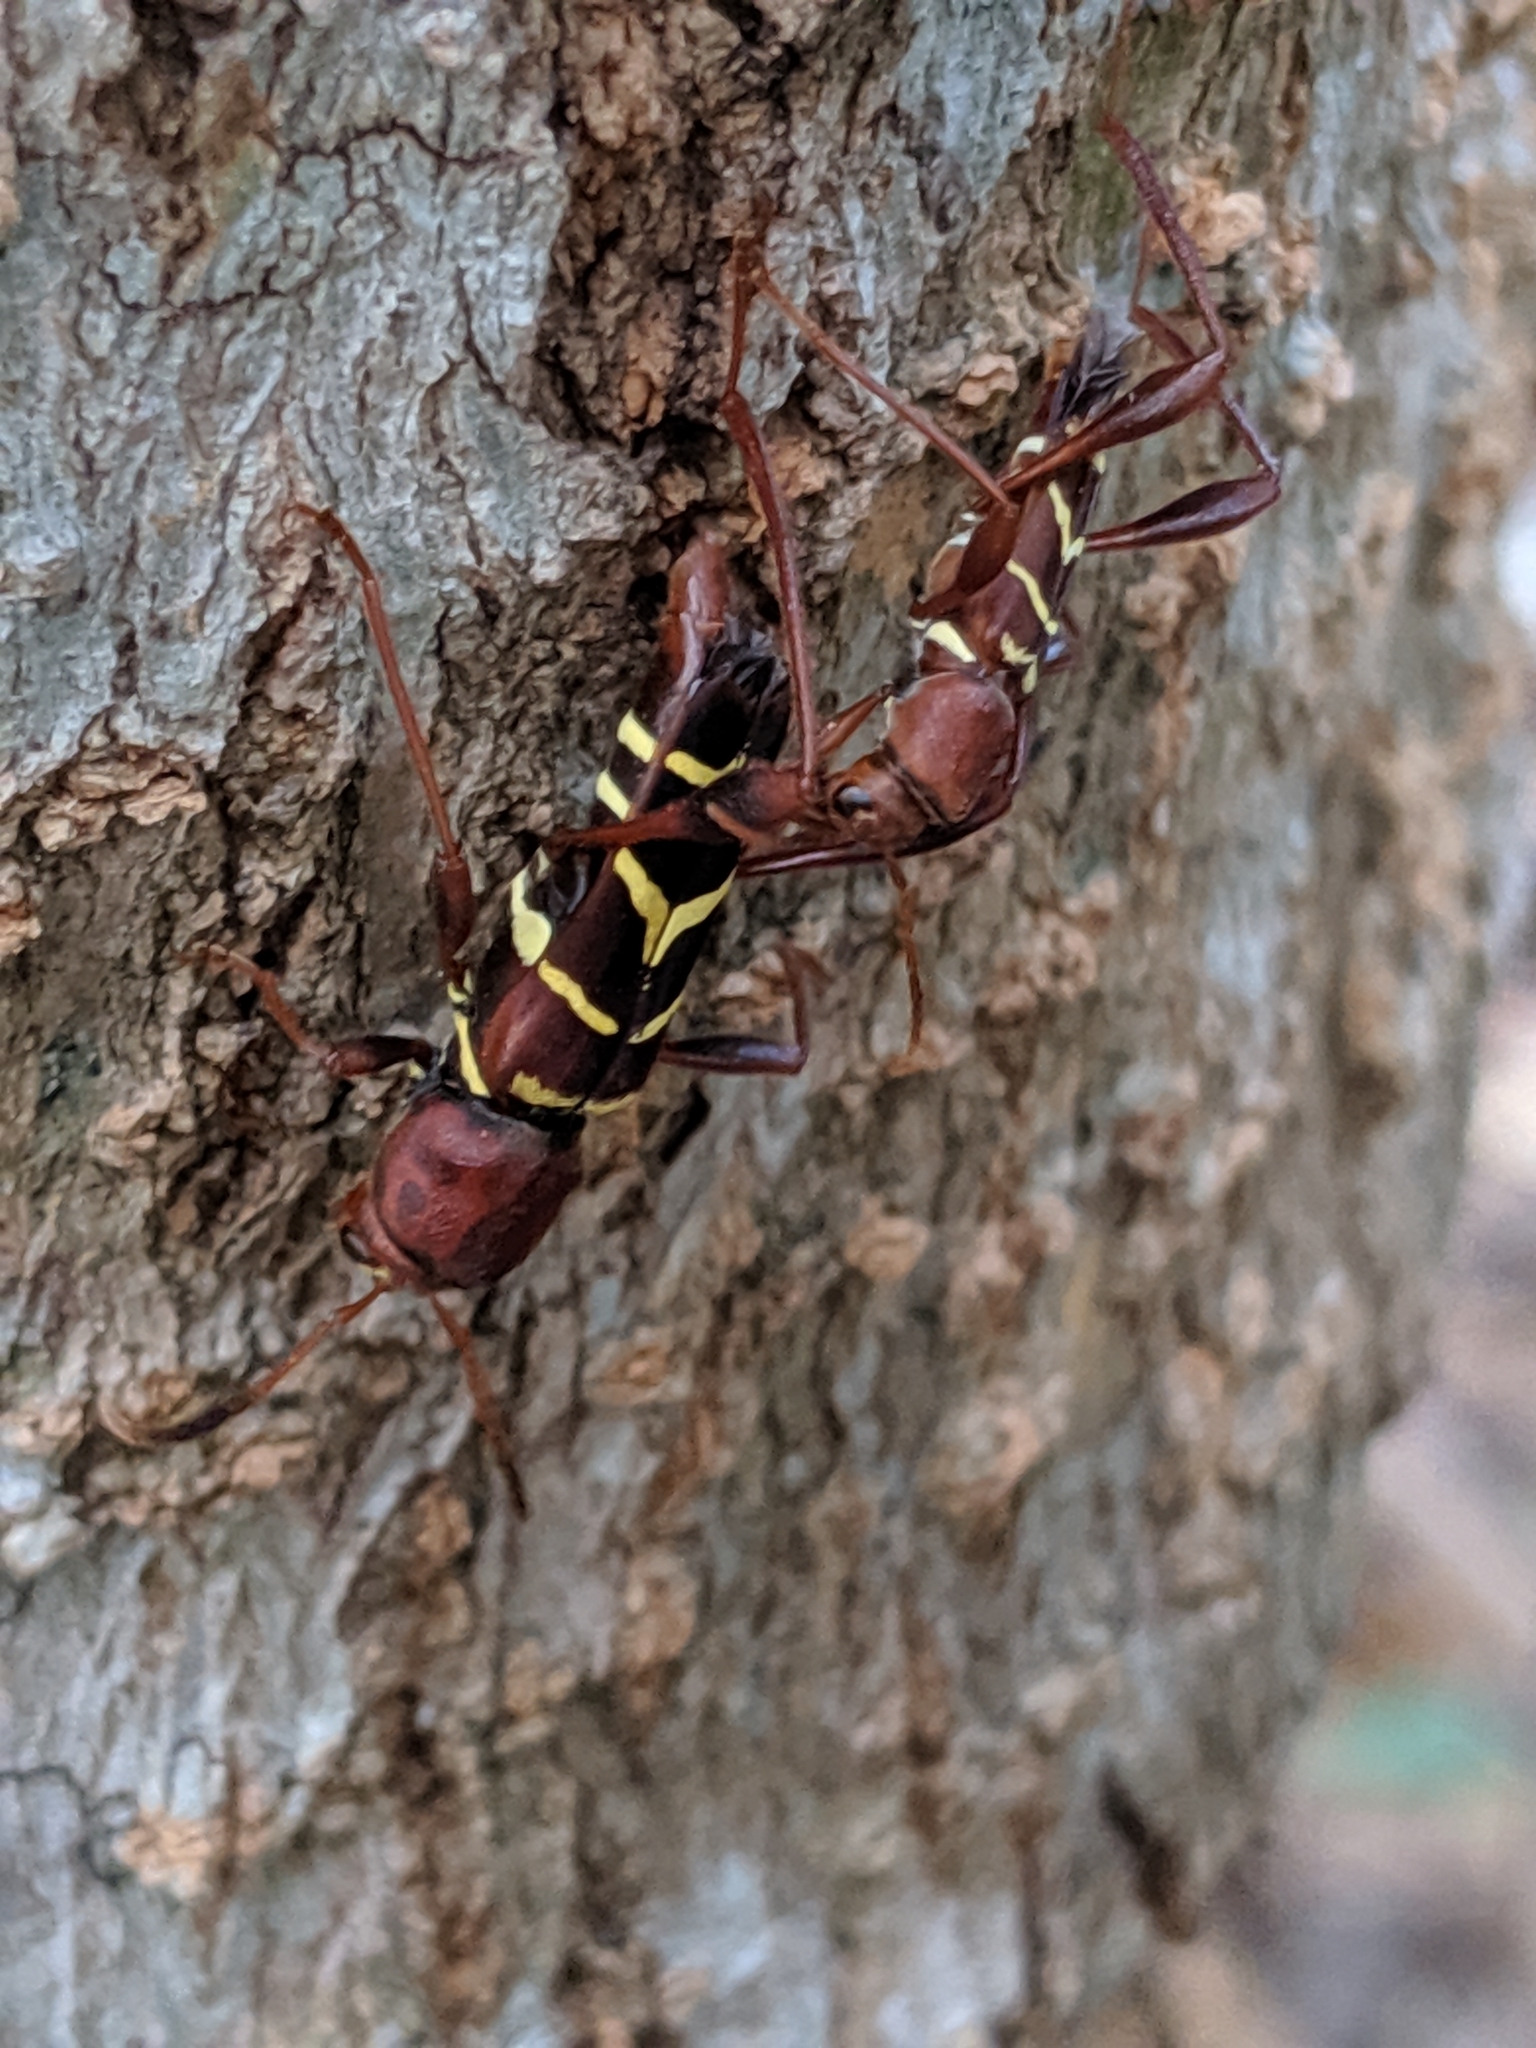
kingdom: Animalia
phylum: Arthropoda
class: Insecta
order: Coleoptera
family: Cerambycidae
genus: Neoclytus
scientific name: Neoclytus acuminatus
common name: Read-headed ash borer
